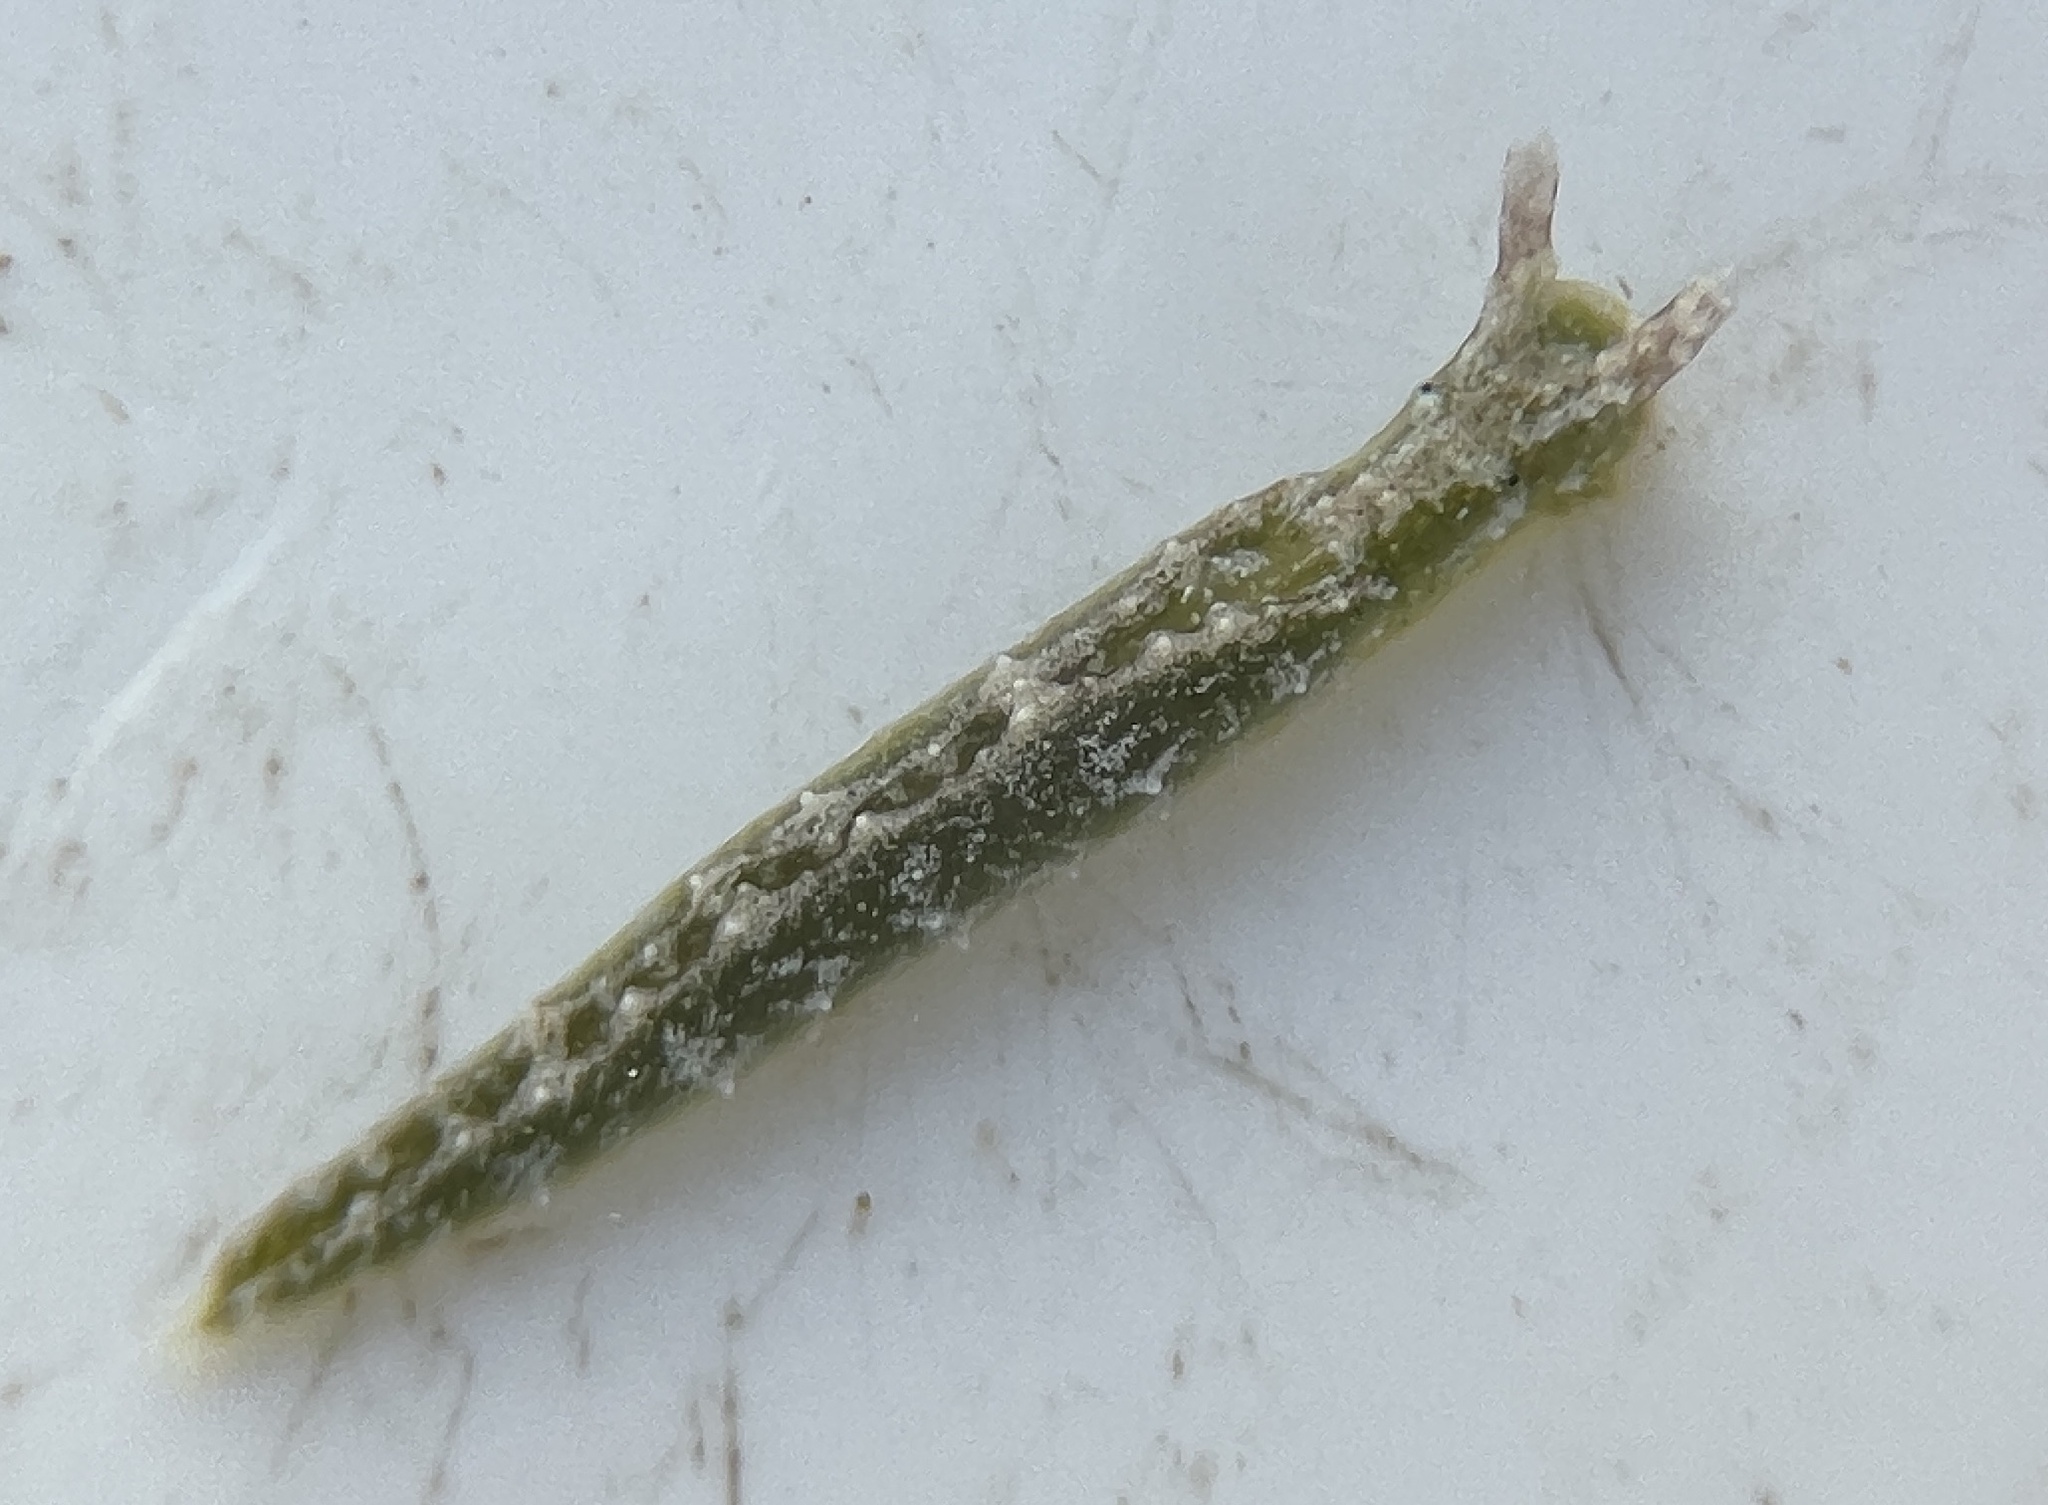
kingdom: Animalia
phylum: Mollusca
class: Gastropoda
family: Plakobranchidae
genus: Elysia
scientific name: Elysia papillosa
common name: Papillose elysia
